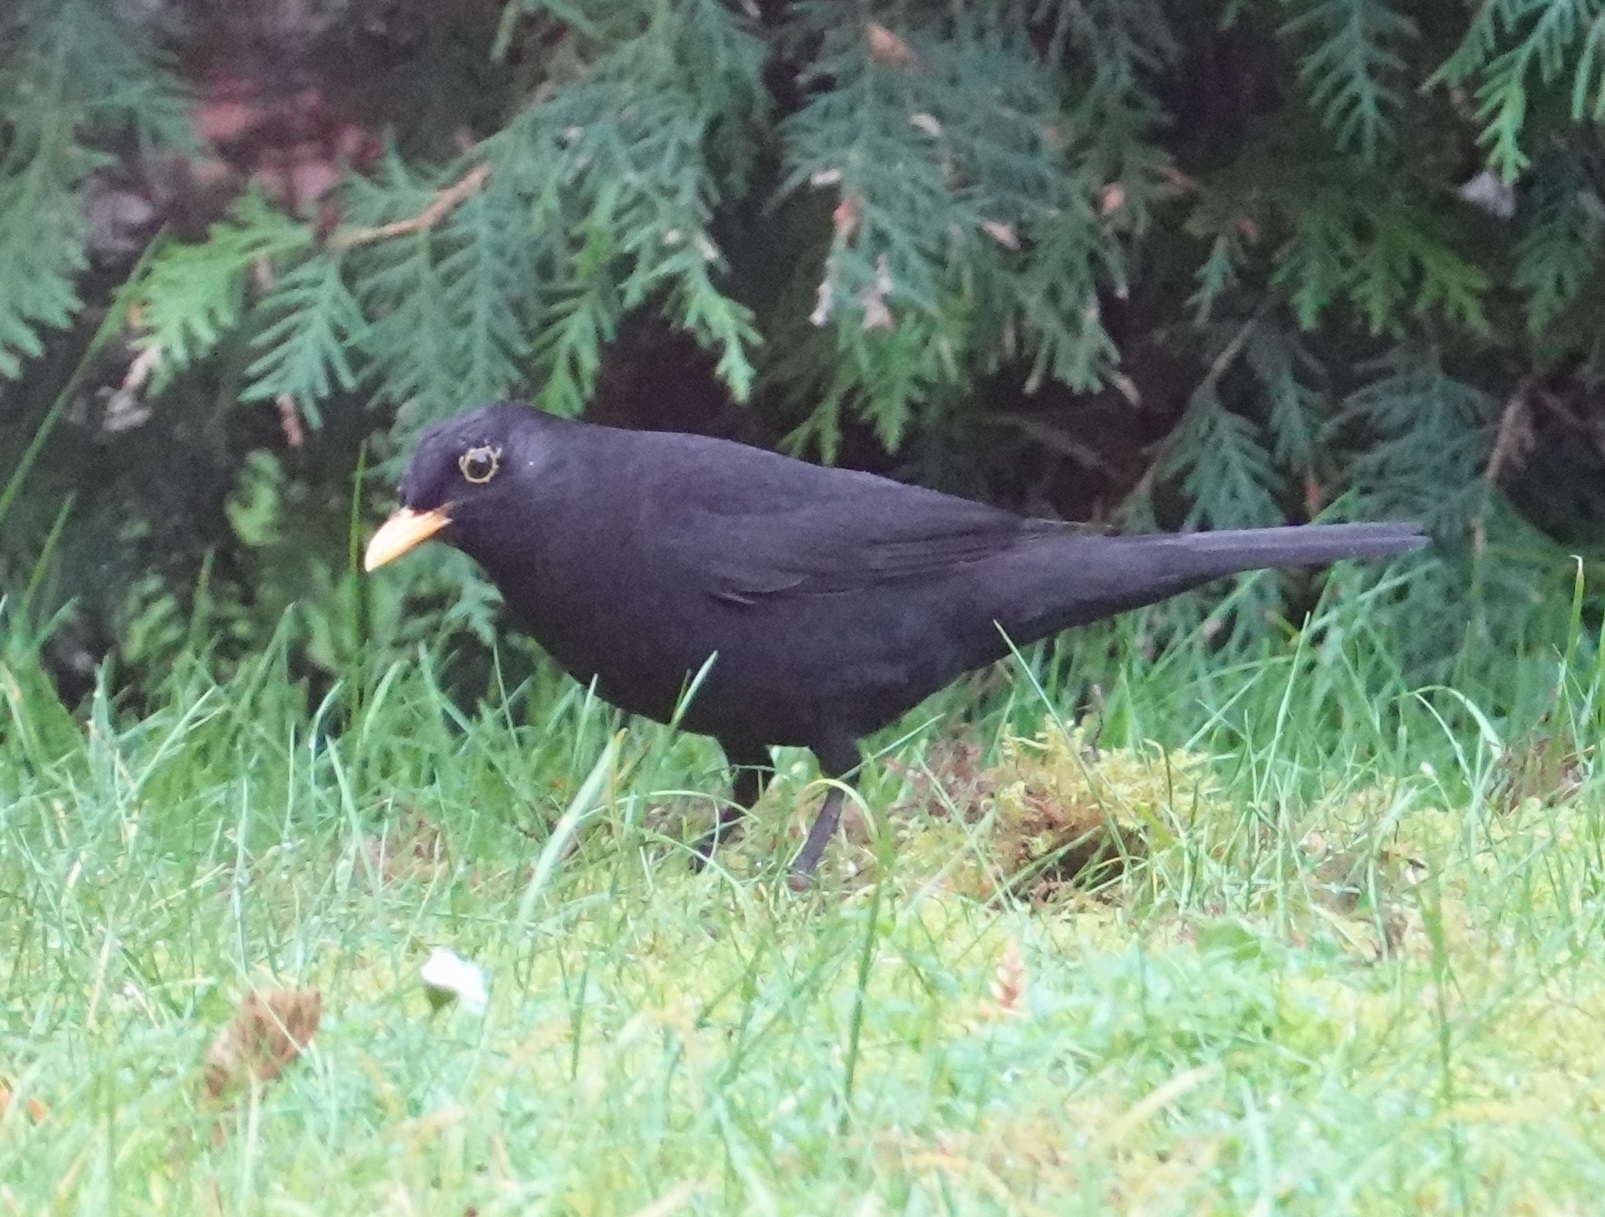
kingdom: Animalia
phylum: Chordata
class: Aves
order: Passeriformes
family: Turdidae
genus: Turdus
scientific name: Turdus merula
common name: Common blackbird
